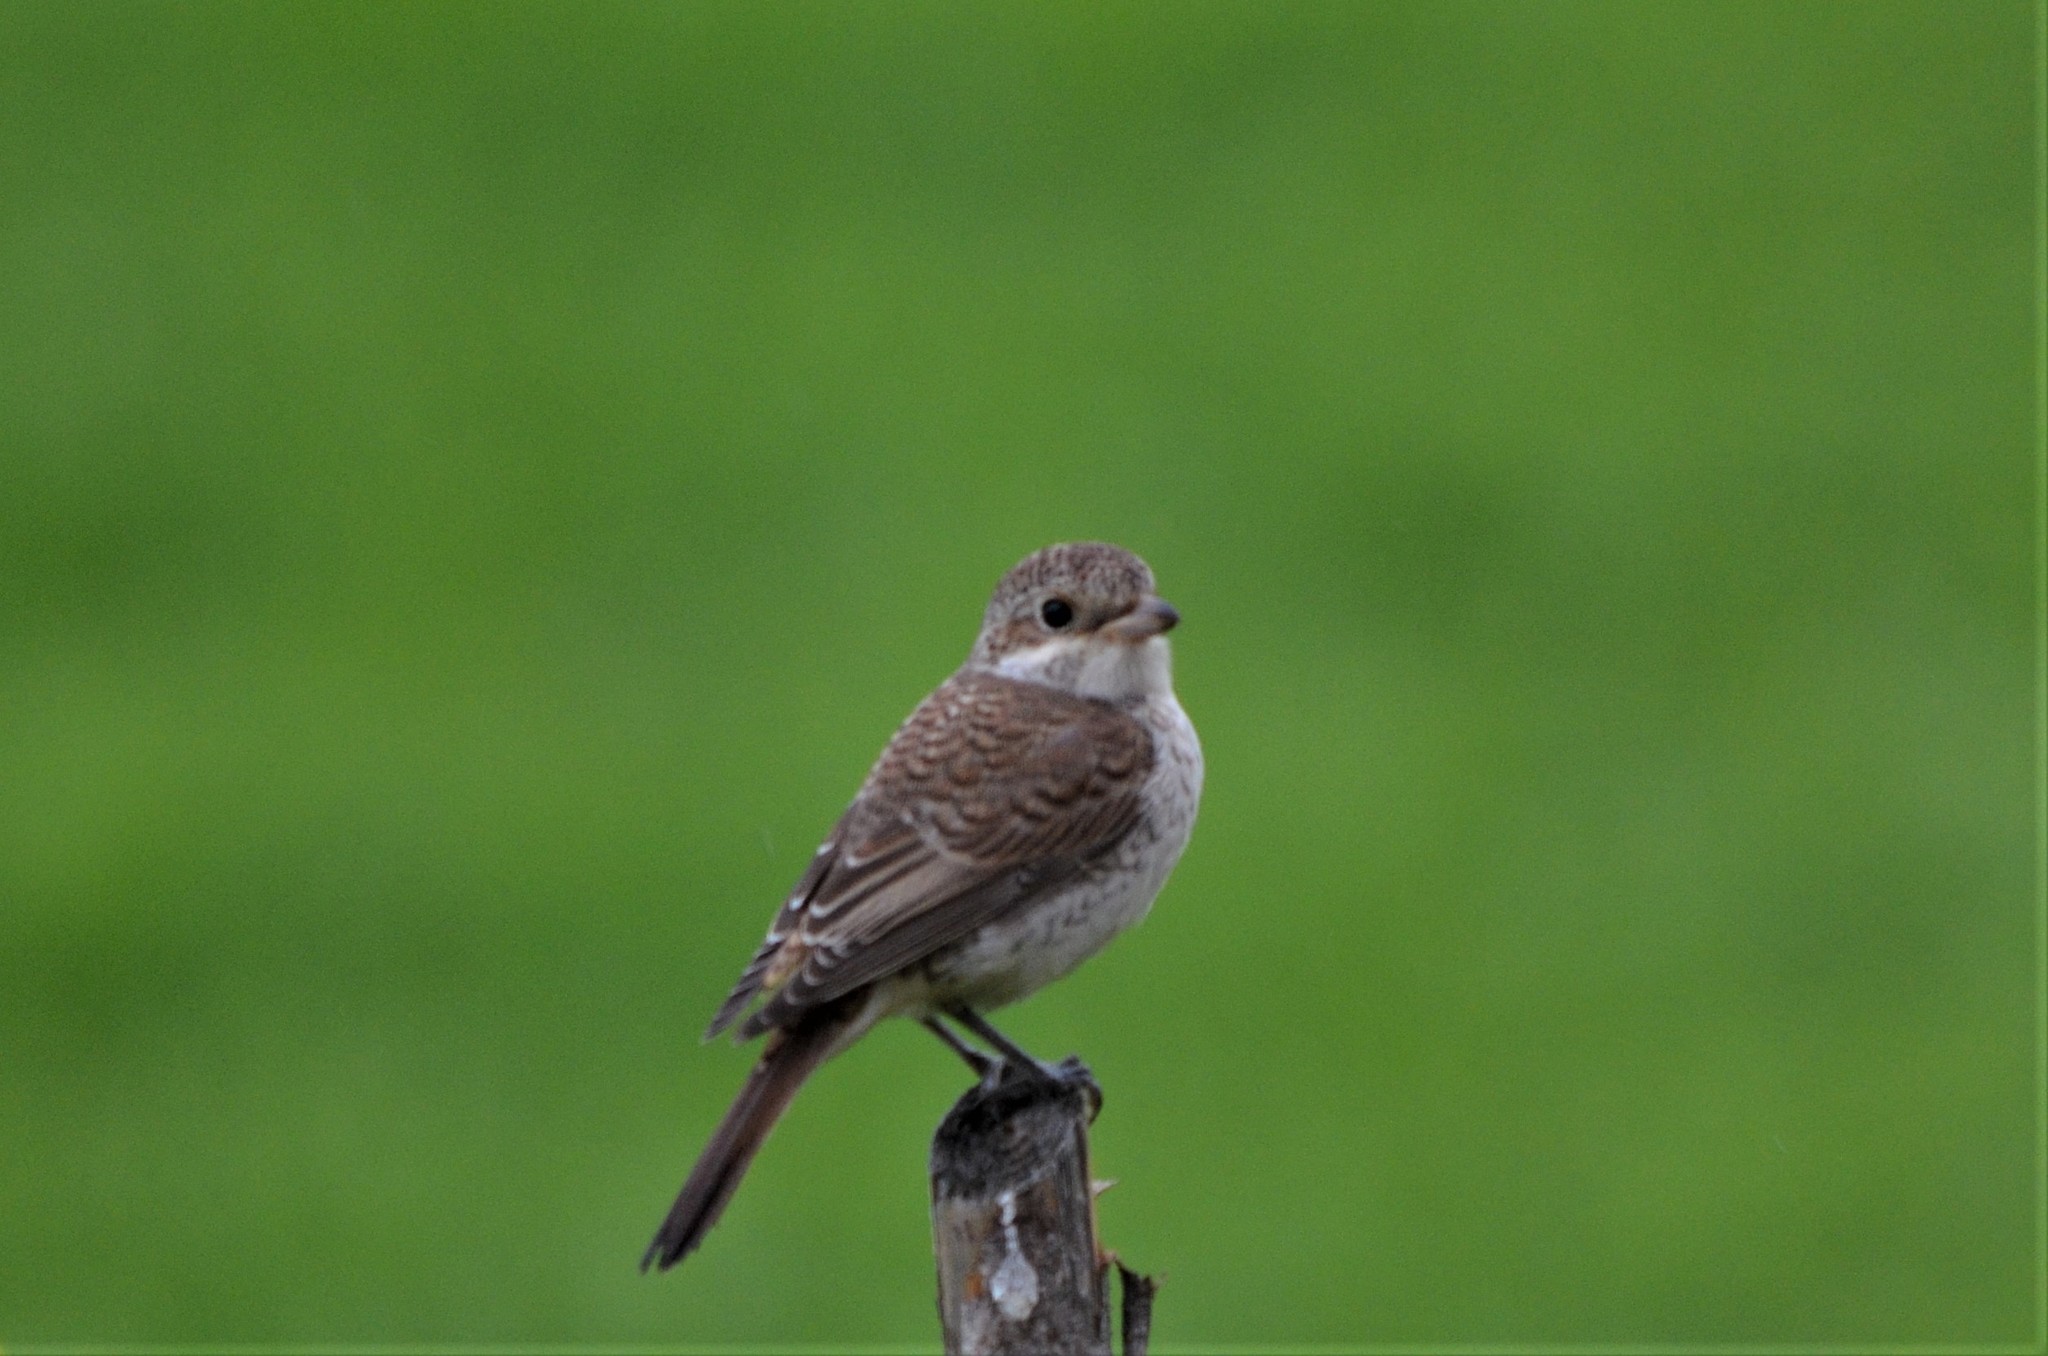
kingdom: Animalia
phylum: Chordata
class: Aves
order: Passeriformes
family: Laniidae
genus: Lanius
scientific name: Lanius collurio
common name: Red-backed shrike
